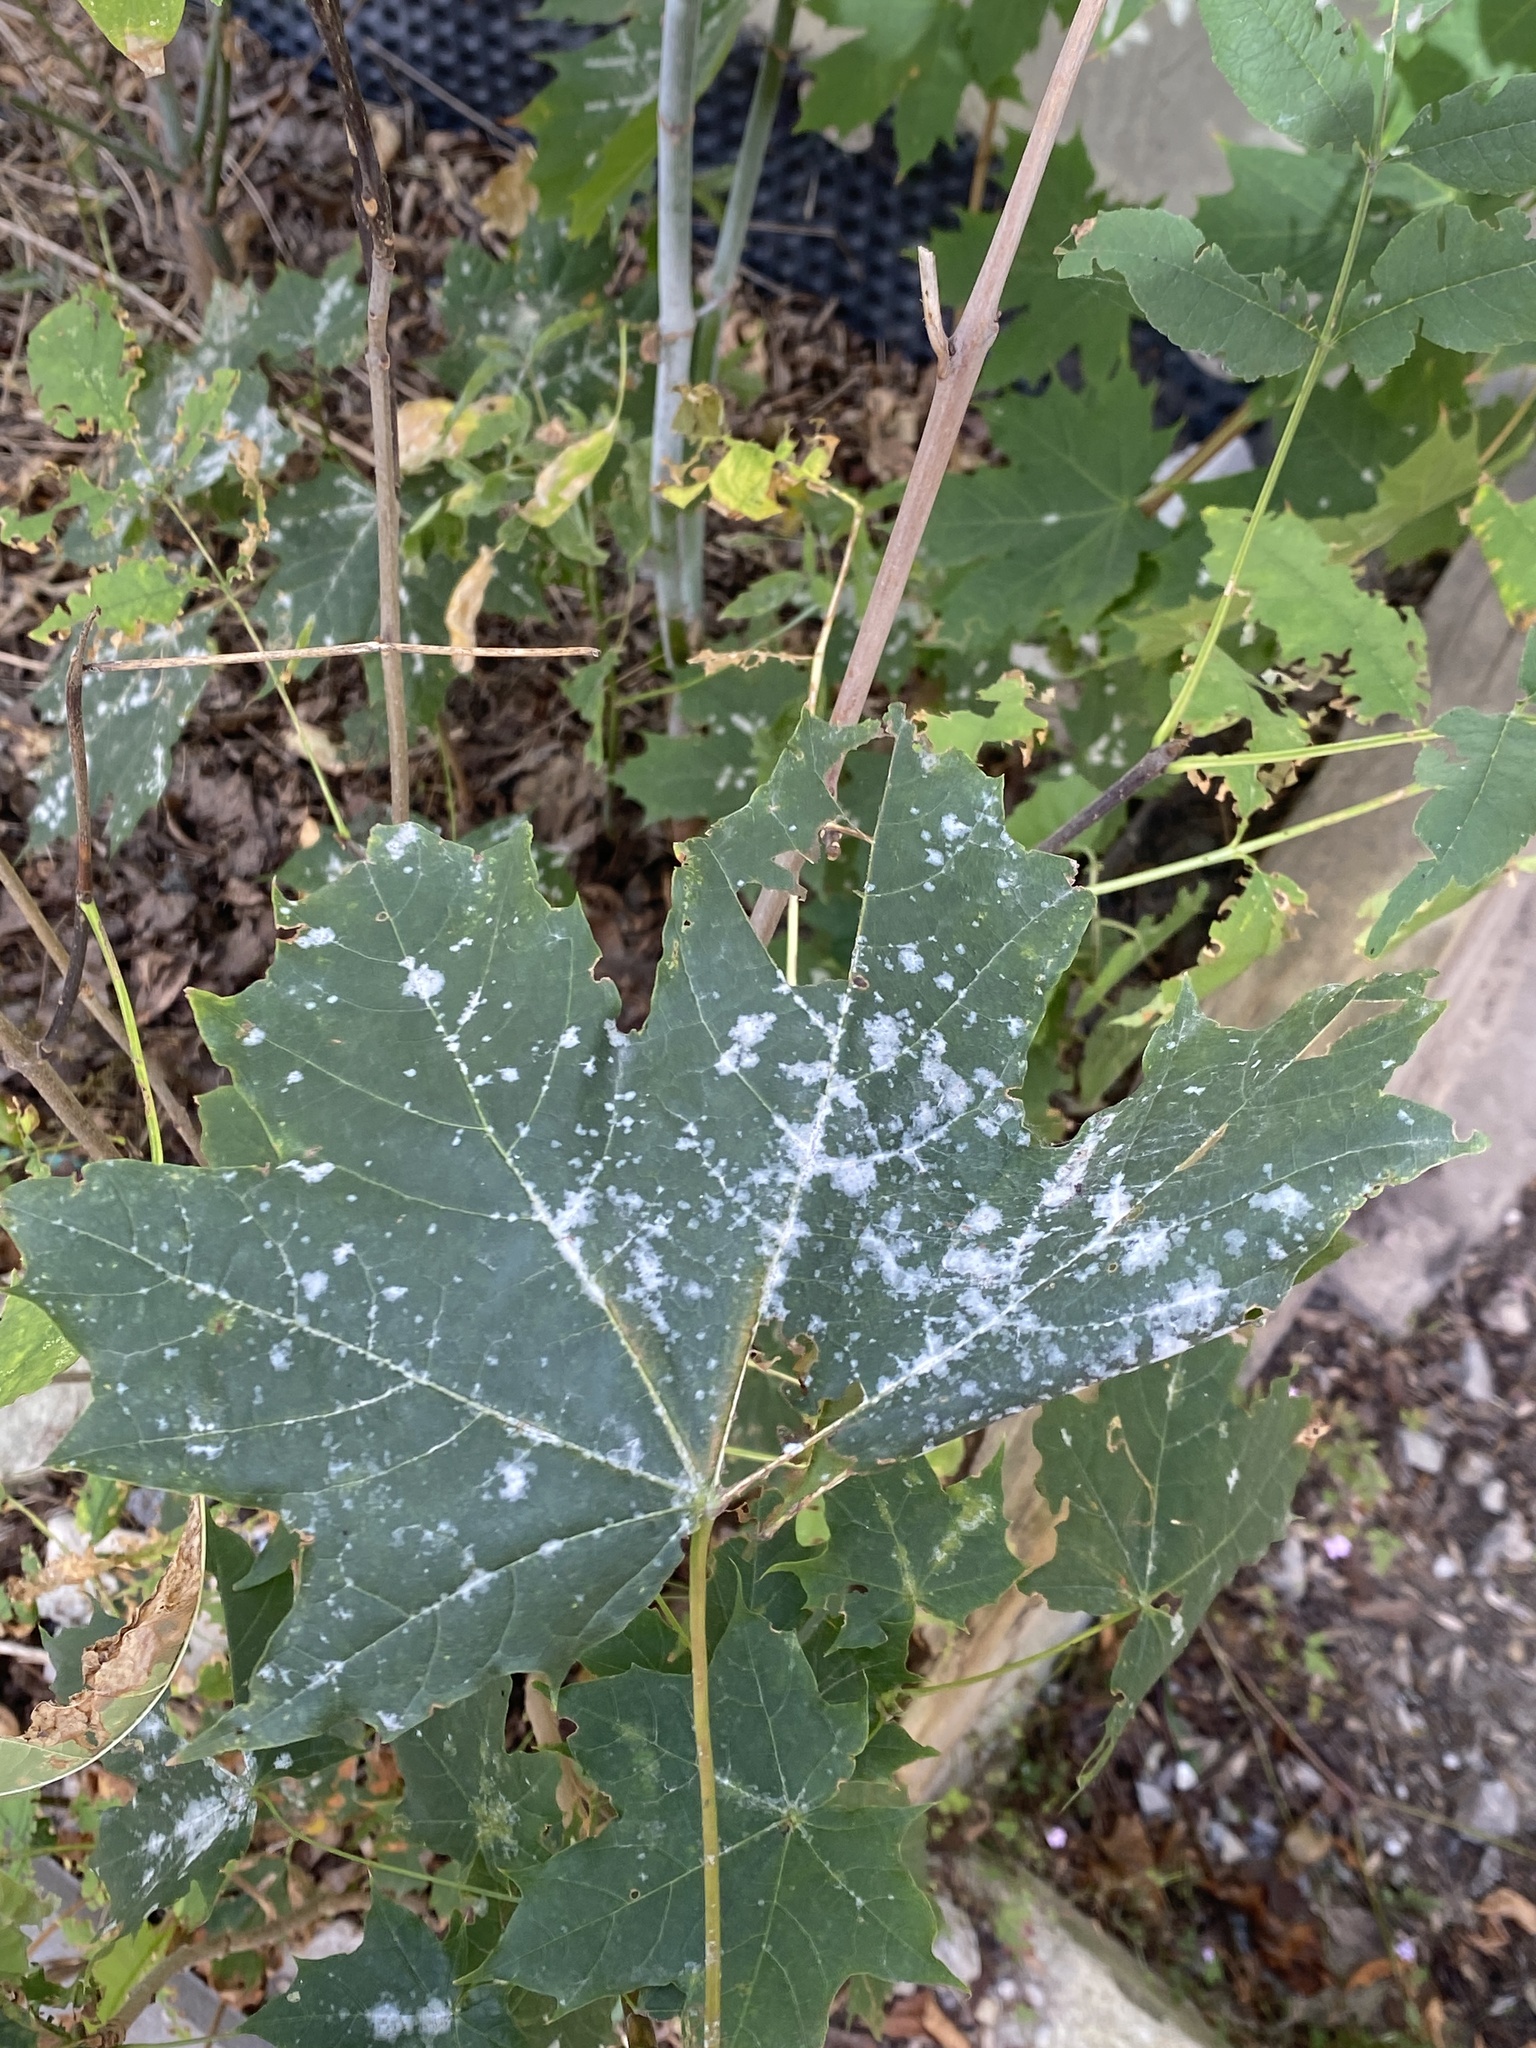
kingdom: Fungi
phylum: Ascomycota
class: Leotiomycetes
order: Helotiales
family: Erysiphaceae
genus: Sawadaea
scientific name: Sawadaea tulasnei
